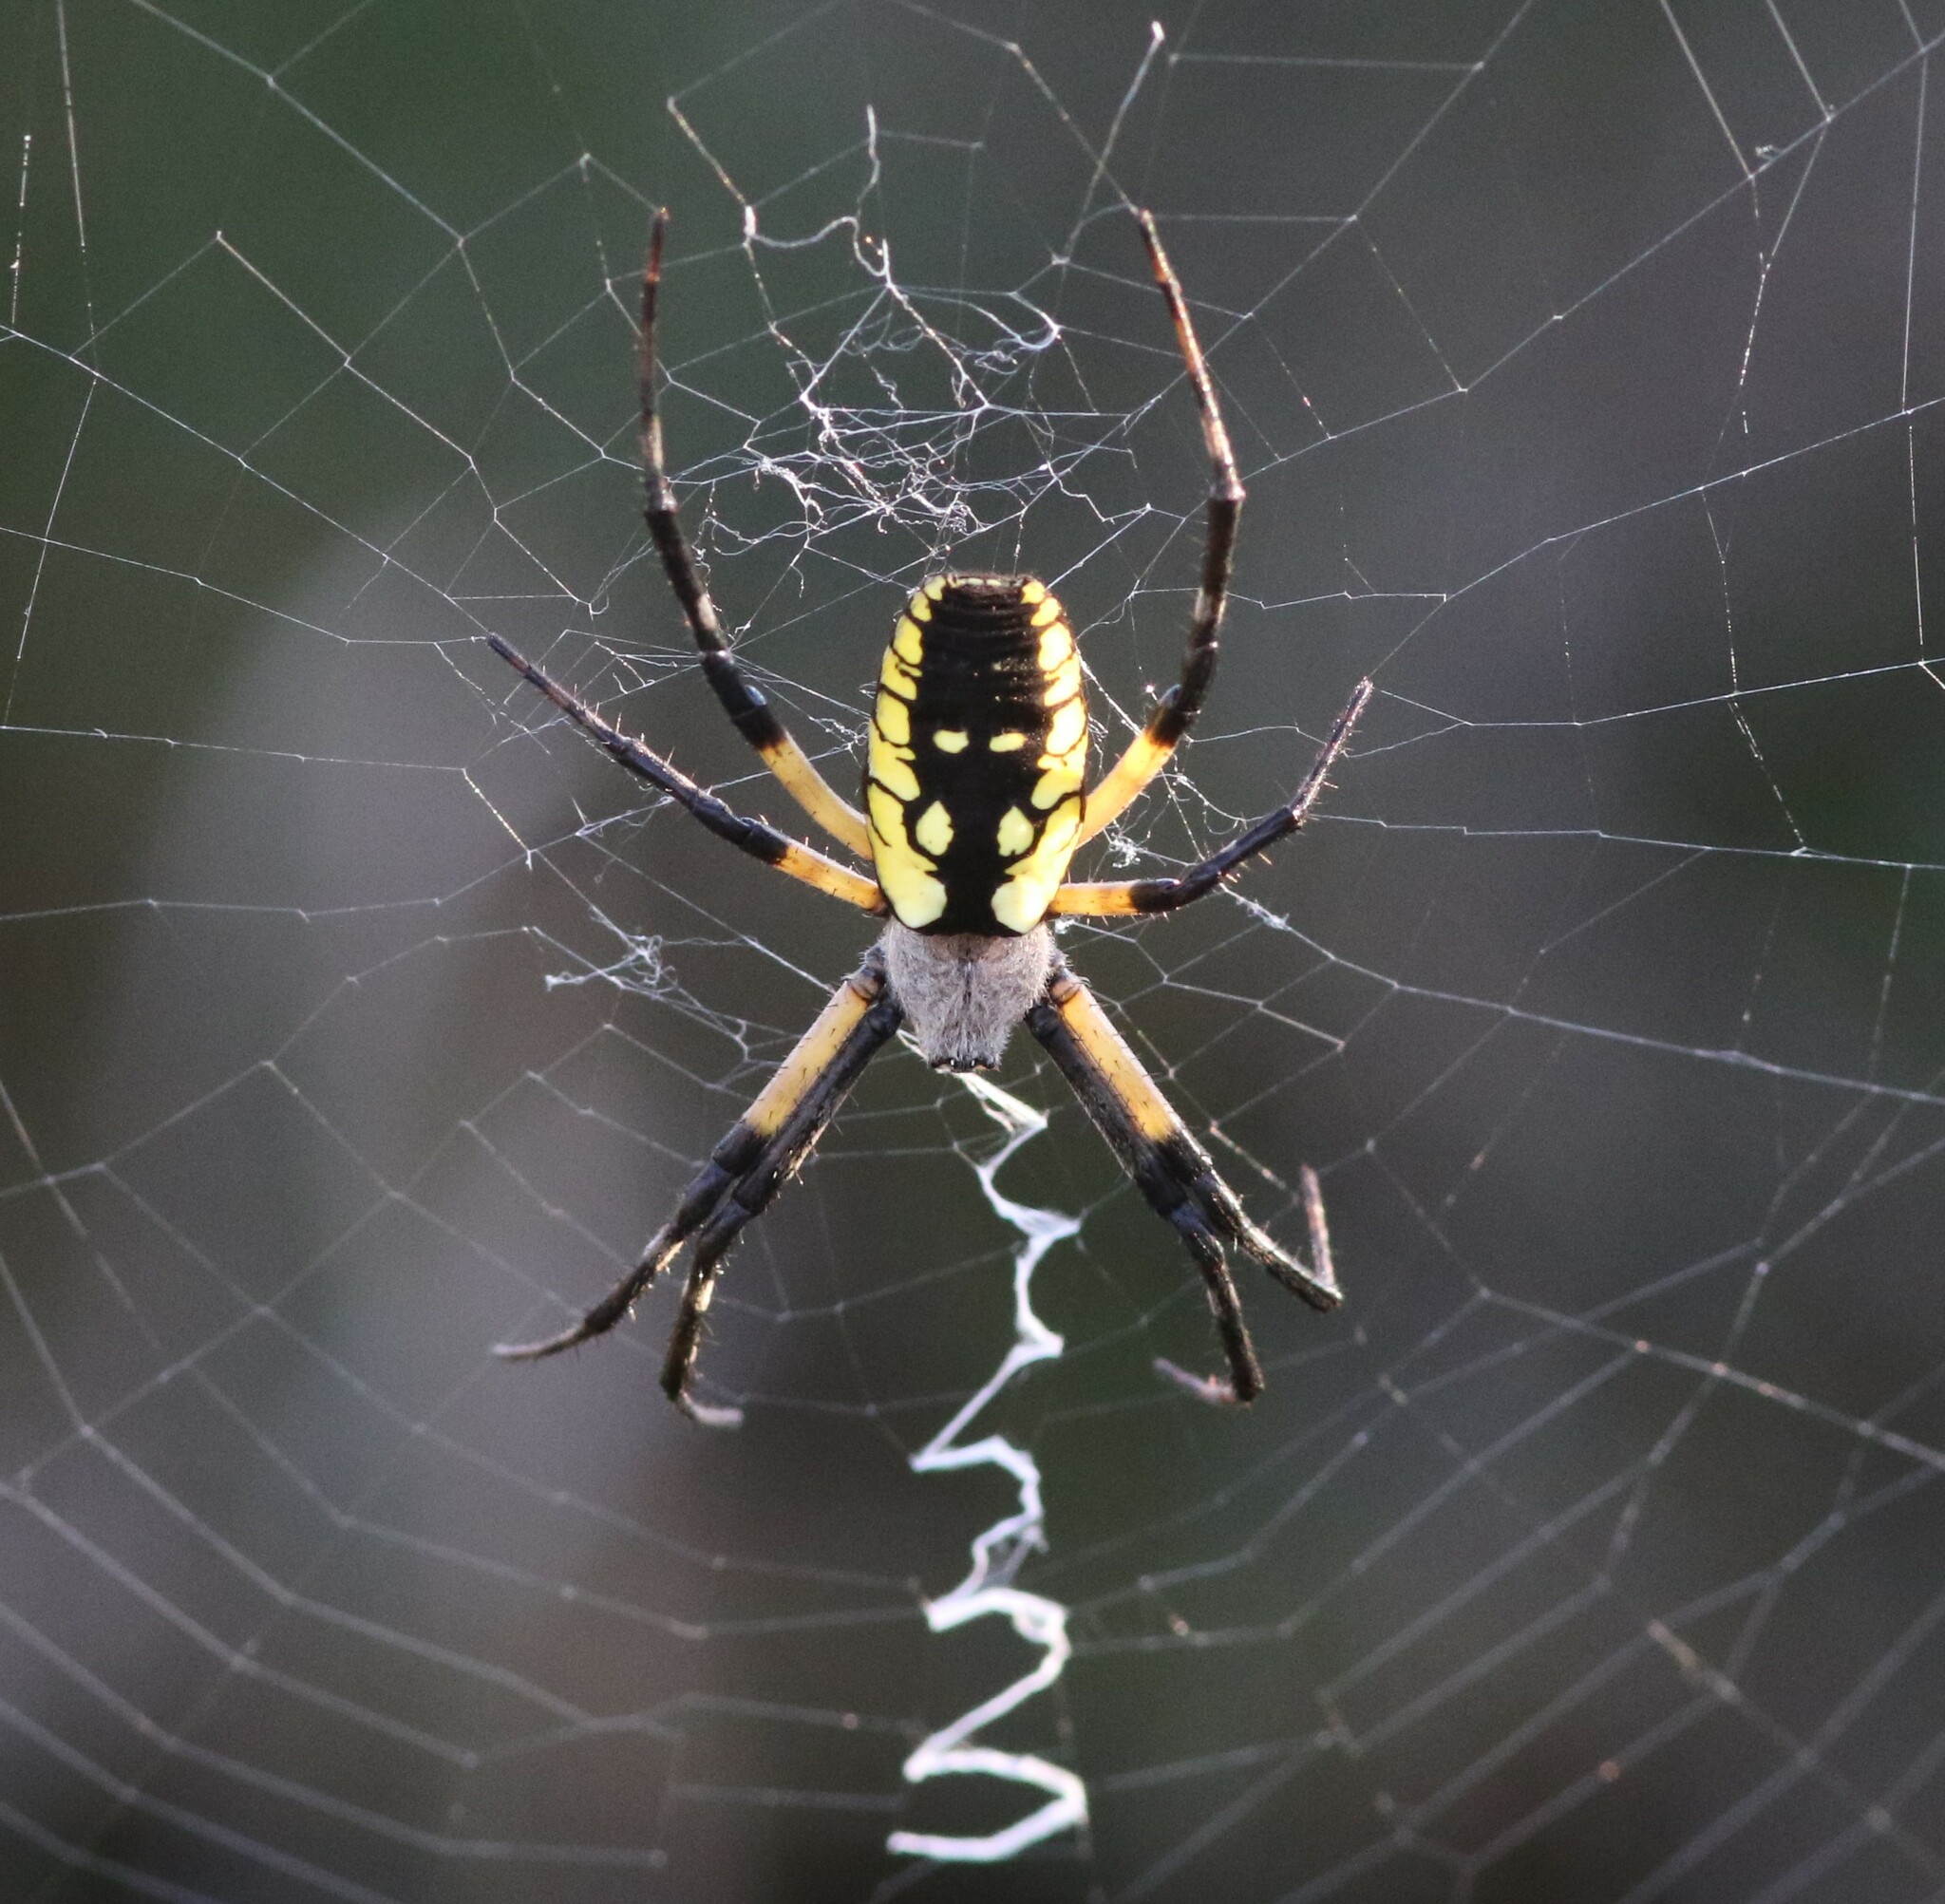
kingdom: Animalia
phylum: Arthropoda
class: Arachnida
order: Araneae
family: Araneidae
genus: Argiope
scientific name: Argiope aurantia
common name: Orb weavers
